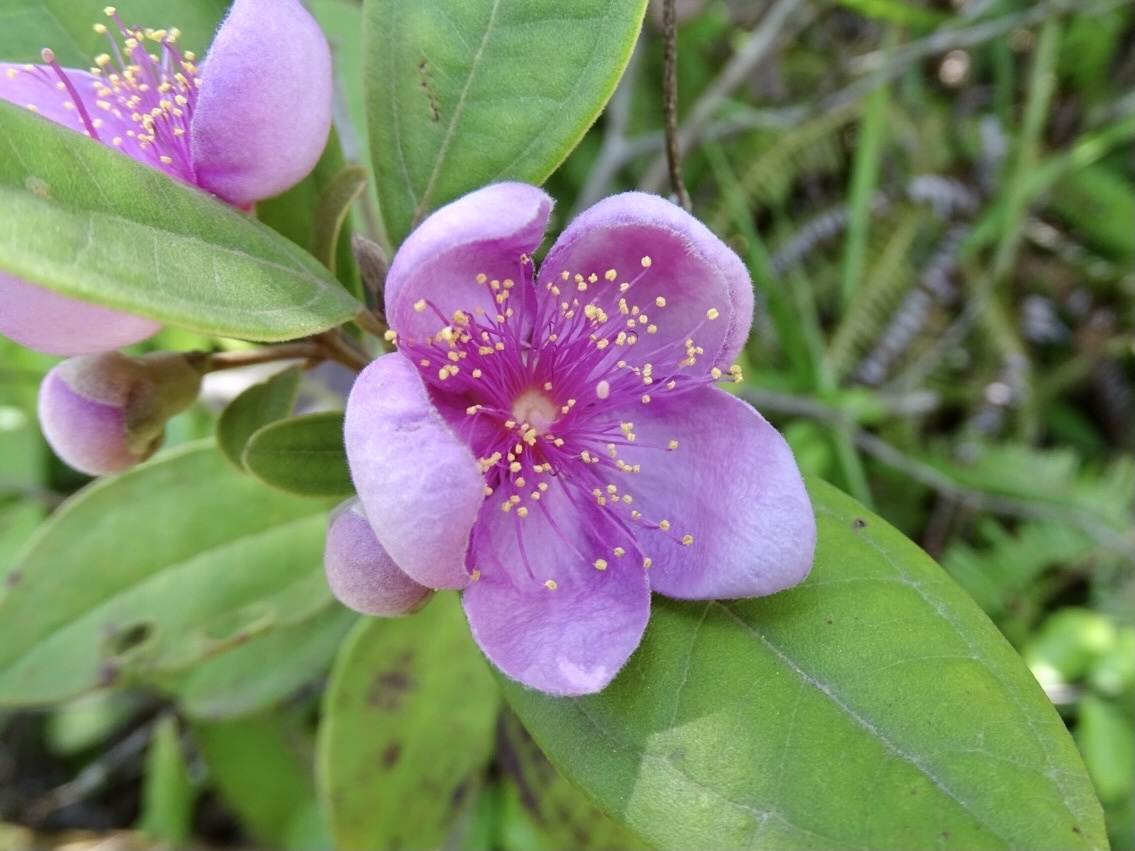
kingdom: Plantae
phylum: Tracheophyta
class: Magnoliopsida
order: Myrtales
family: Myrtaceae
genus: Rhodomyrtus
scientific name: Rhodomyrtus tomentosa
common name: Rose myrtle
